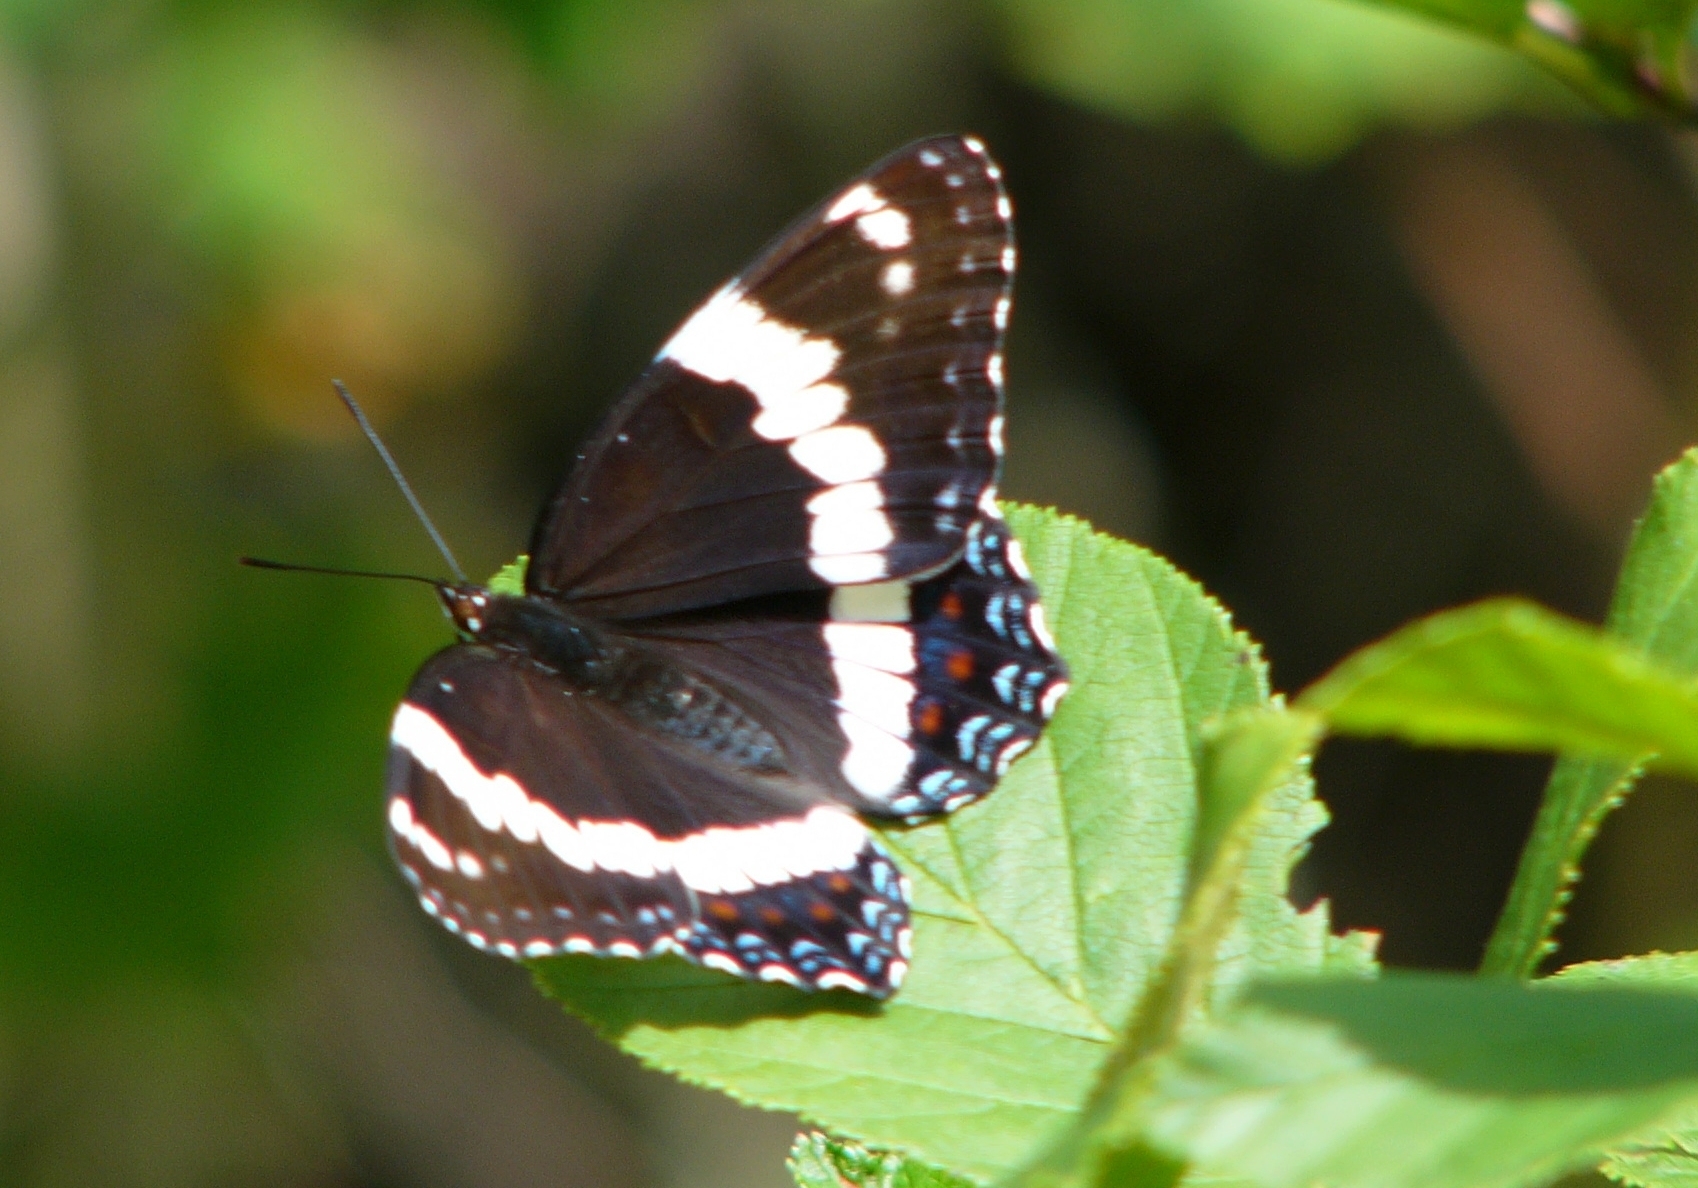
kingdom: Animalia
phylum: Arthropoda
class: Insecta
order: Lepidoptera
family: Nymphalidae
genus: Limenitis
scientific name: Limenitis arthemis
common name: Red-spotted admiral
